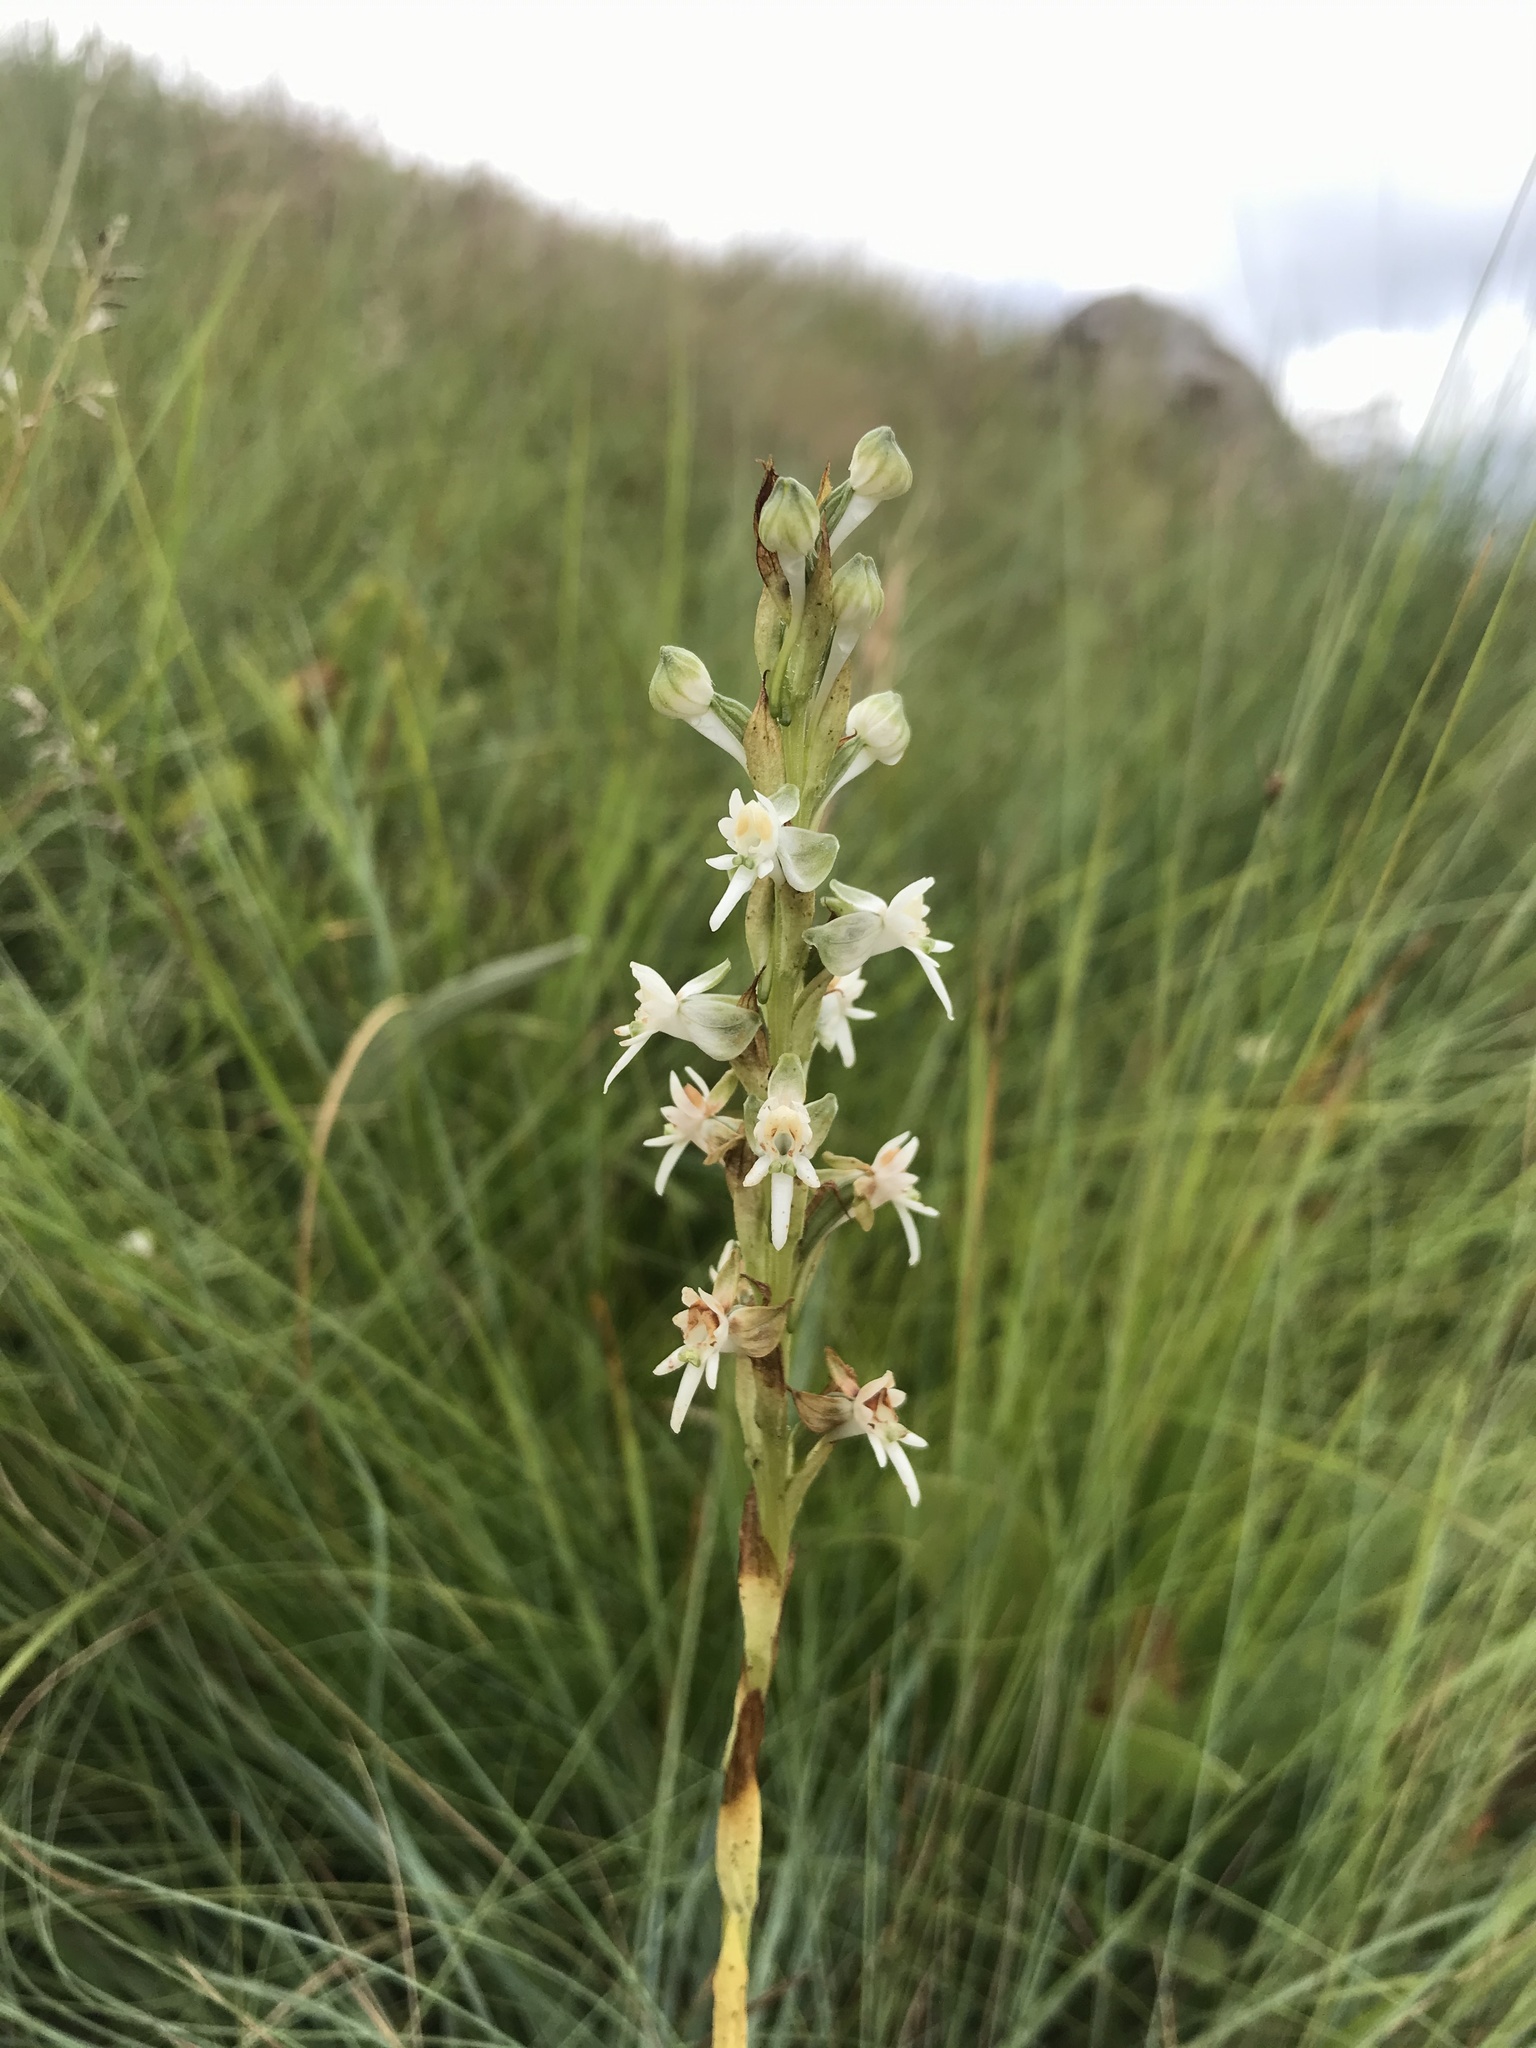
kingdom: Plantae
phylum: Tracheophyta
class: Liliopsida
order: Asparagales
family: Orchidaceae
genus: Habenaria
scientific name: Habenaria dives
